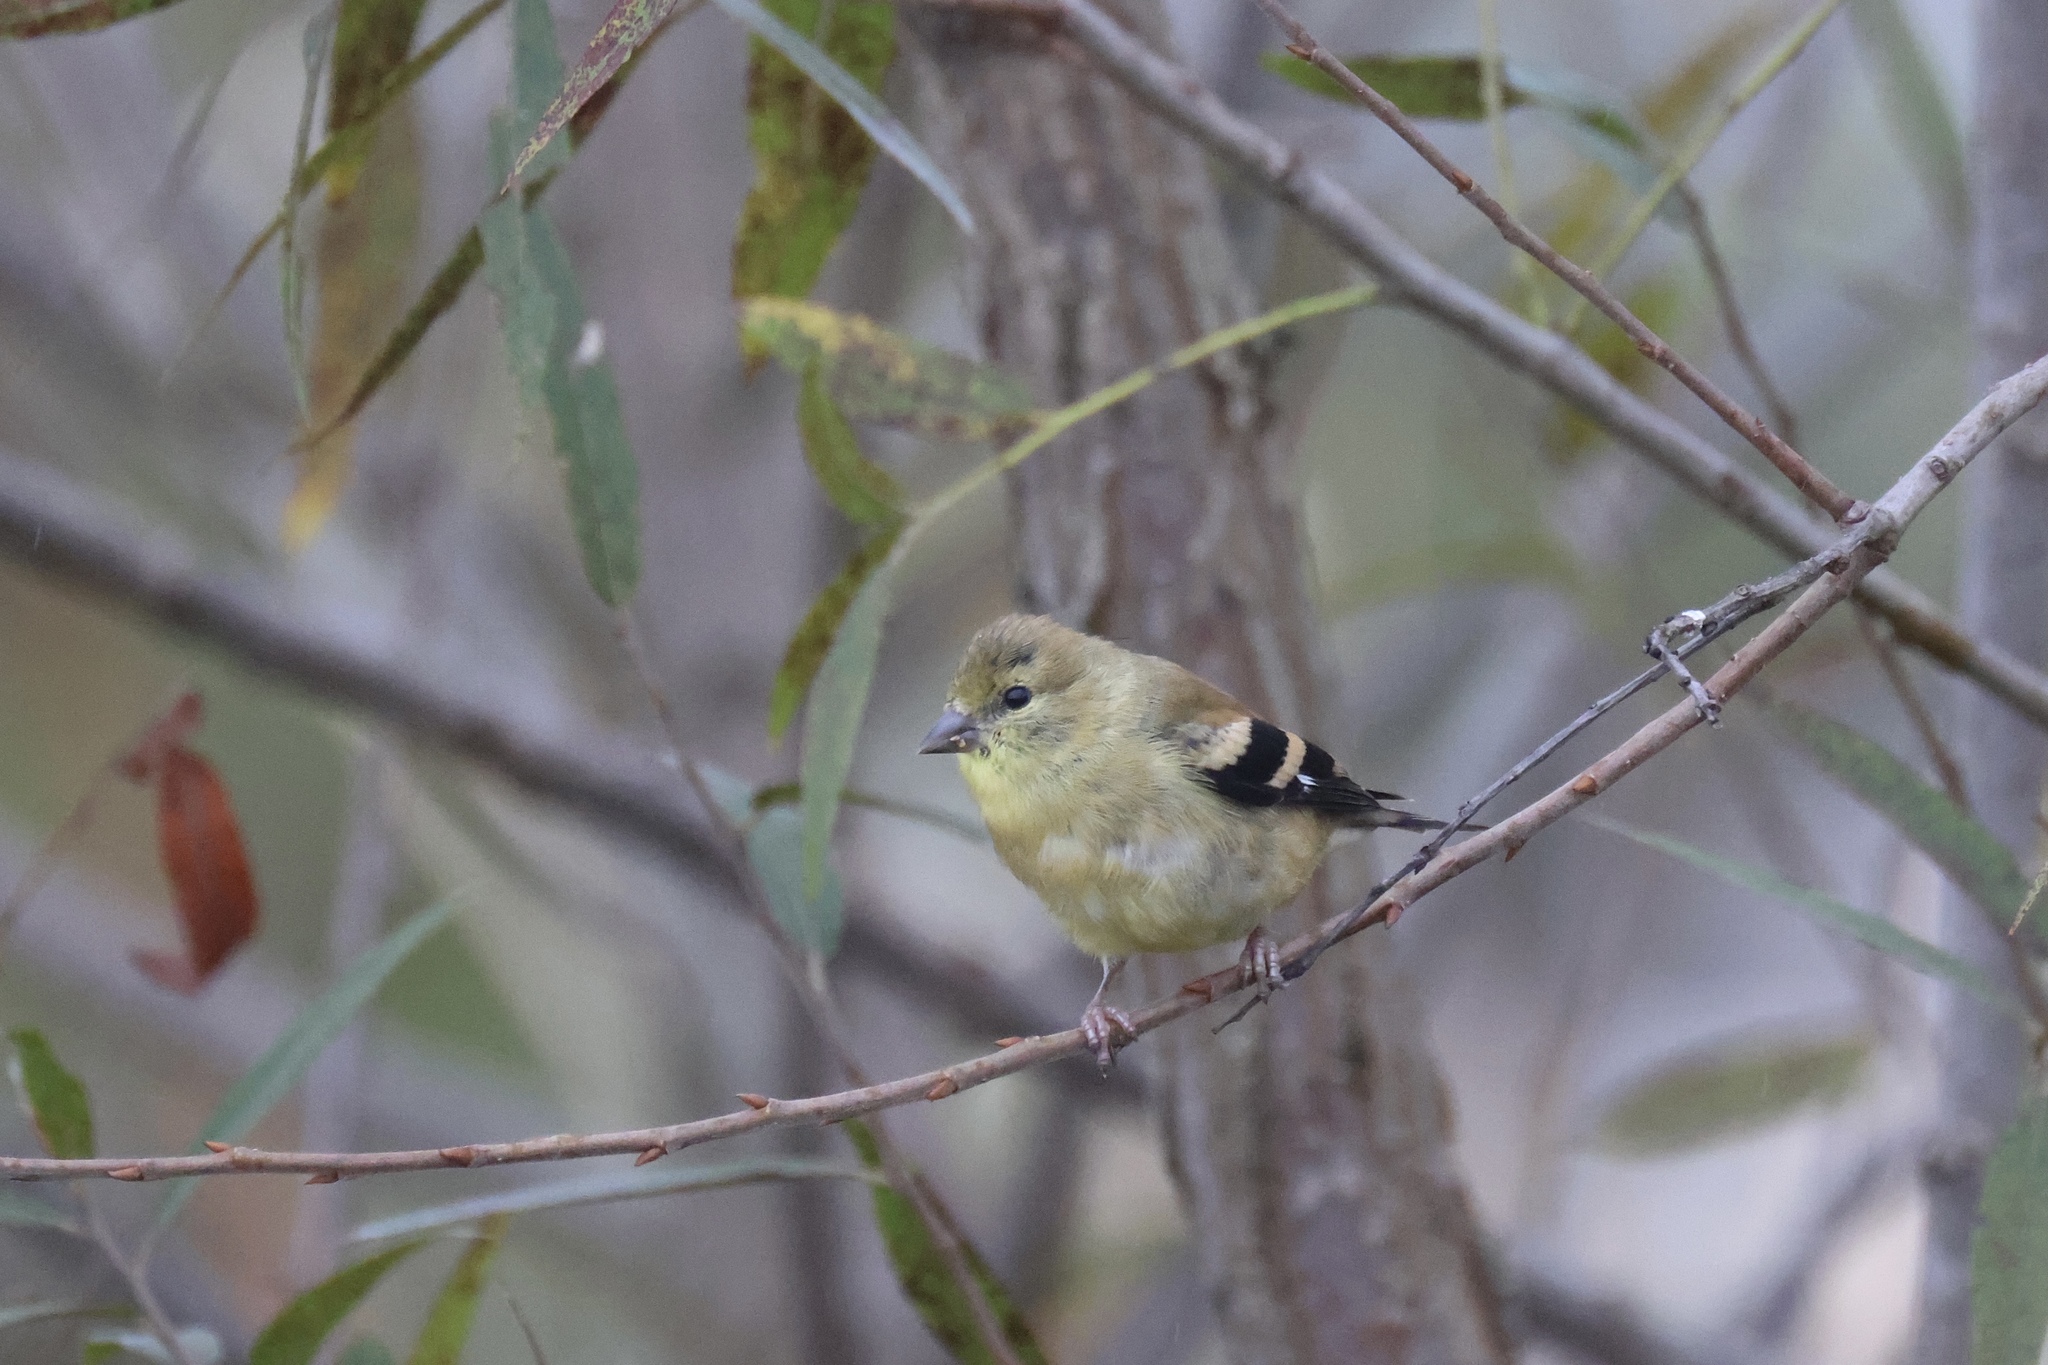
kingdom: Animalia
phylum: Chordata
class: Aves
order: Passeriformes
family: Fringillidae
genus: Spinus
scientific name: Spinus tristis
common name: American goldfinch
